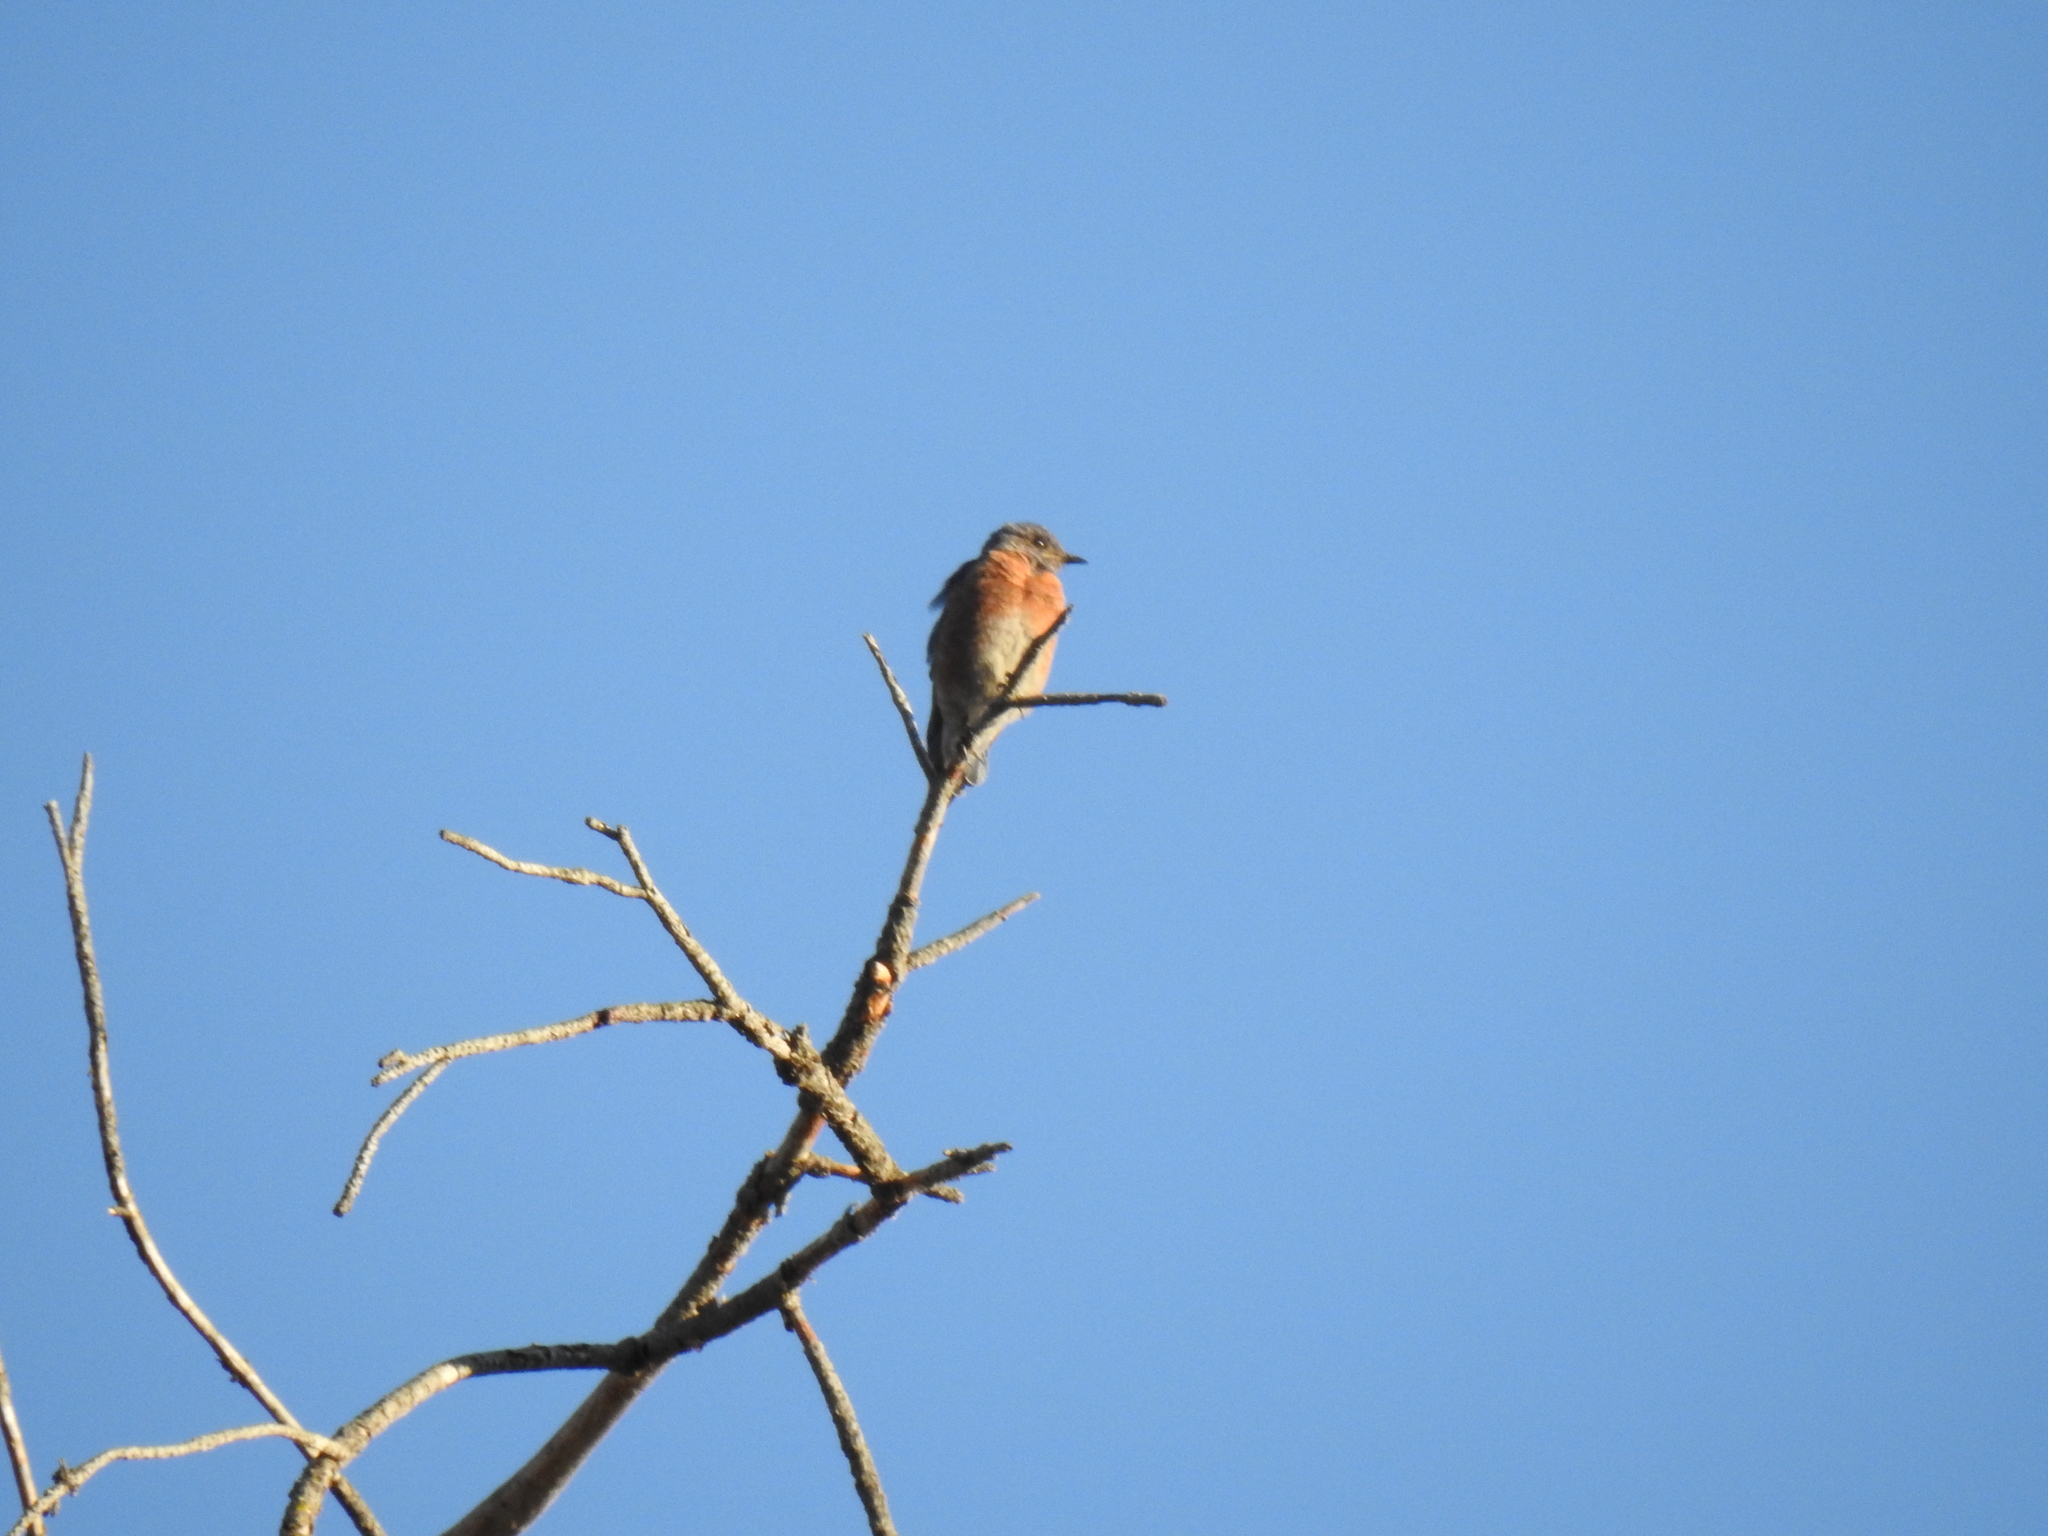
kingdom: Animalia
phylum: Chordata
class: Aves
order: Passeriformes
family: Turdidae
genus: Sialia
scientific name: Sialia mexicana
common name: Western bluebird
